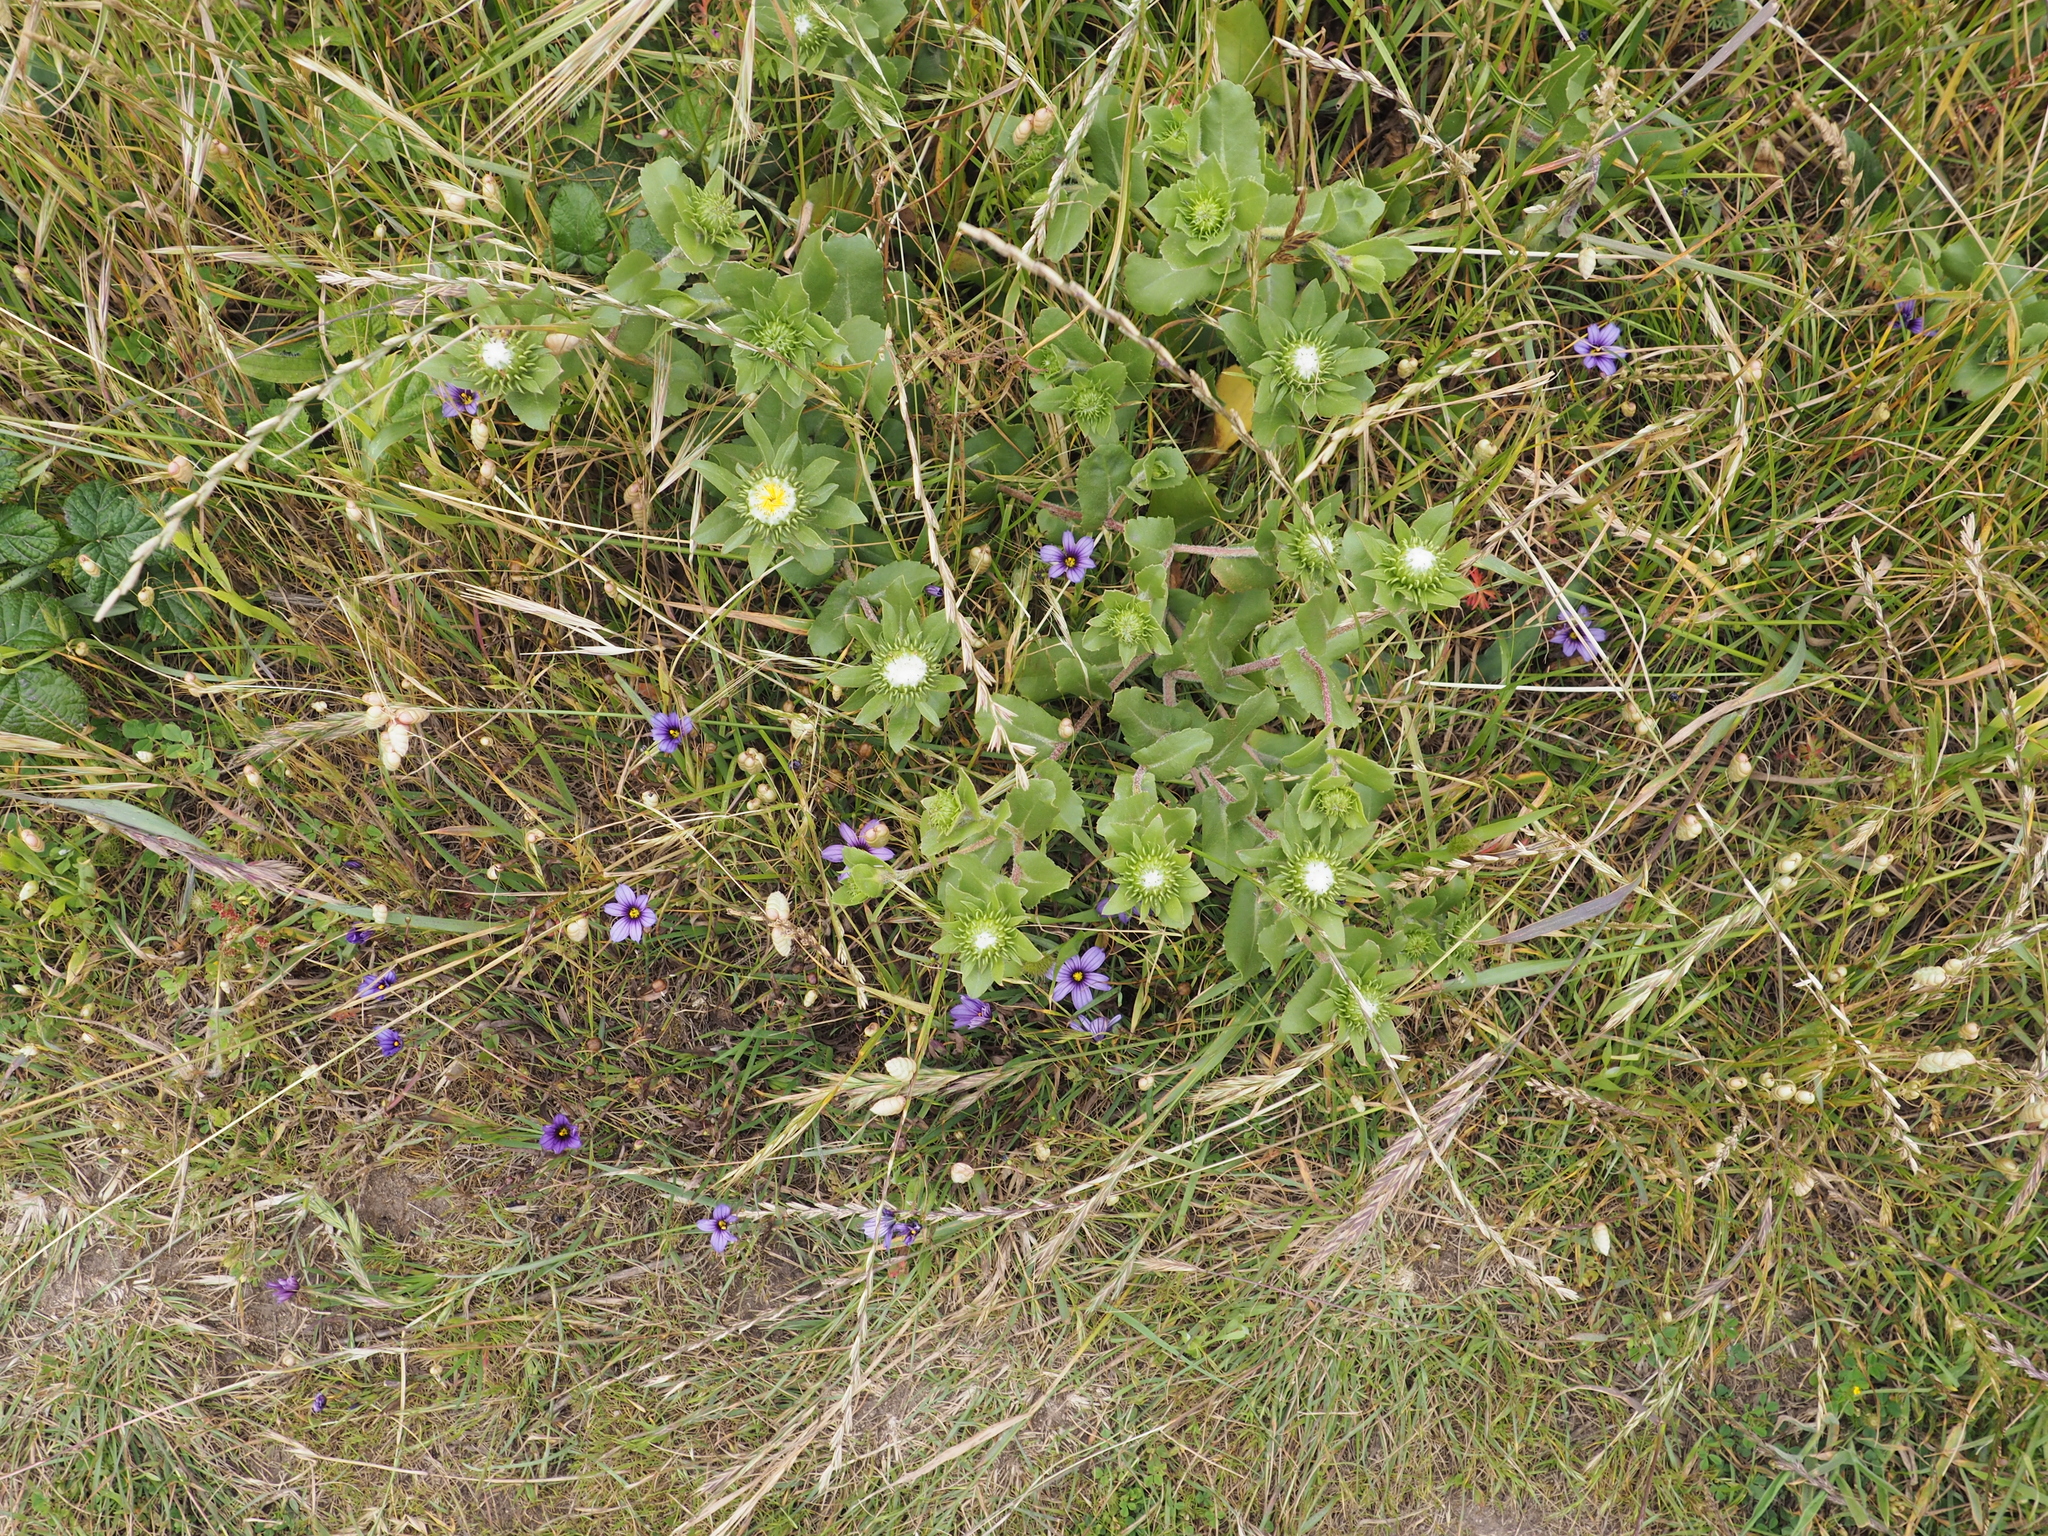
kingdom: Plantae
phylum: Tracheophyta
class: Magnoliopsida
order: Asterales
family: Asteraceae
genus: Grindelia
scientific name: Grindelia hirsutula
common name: Hairy gumweed
